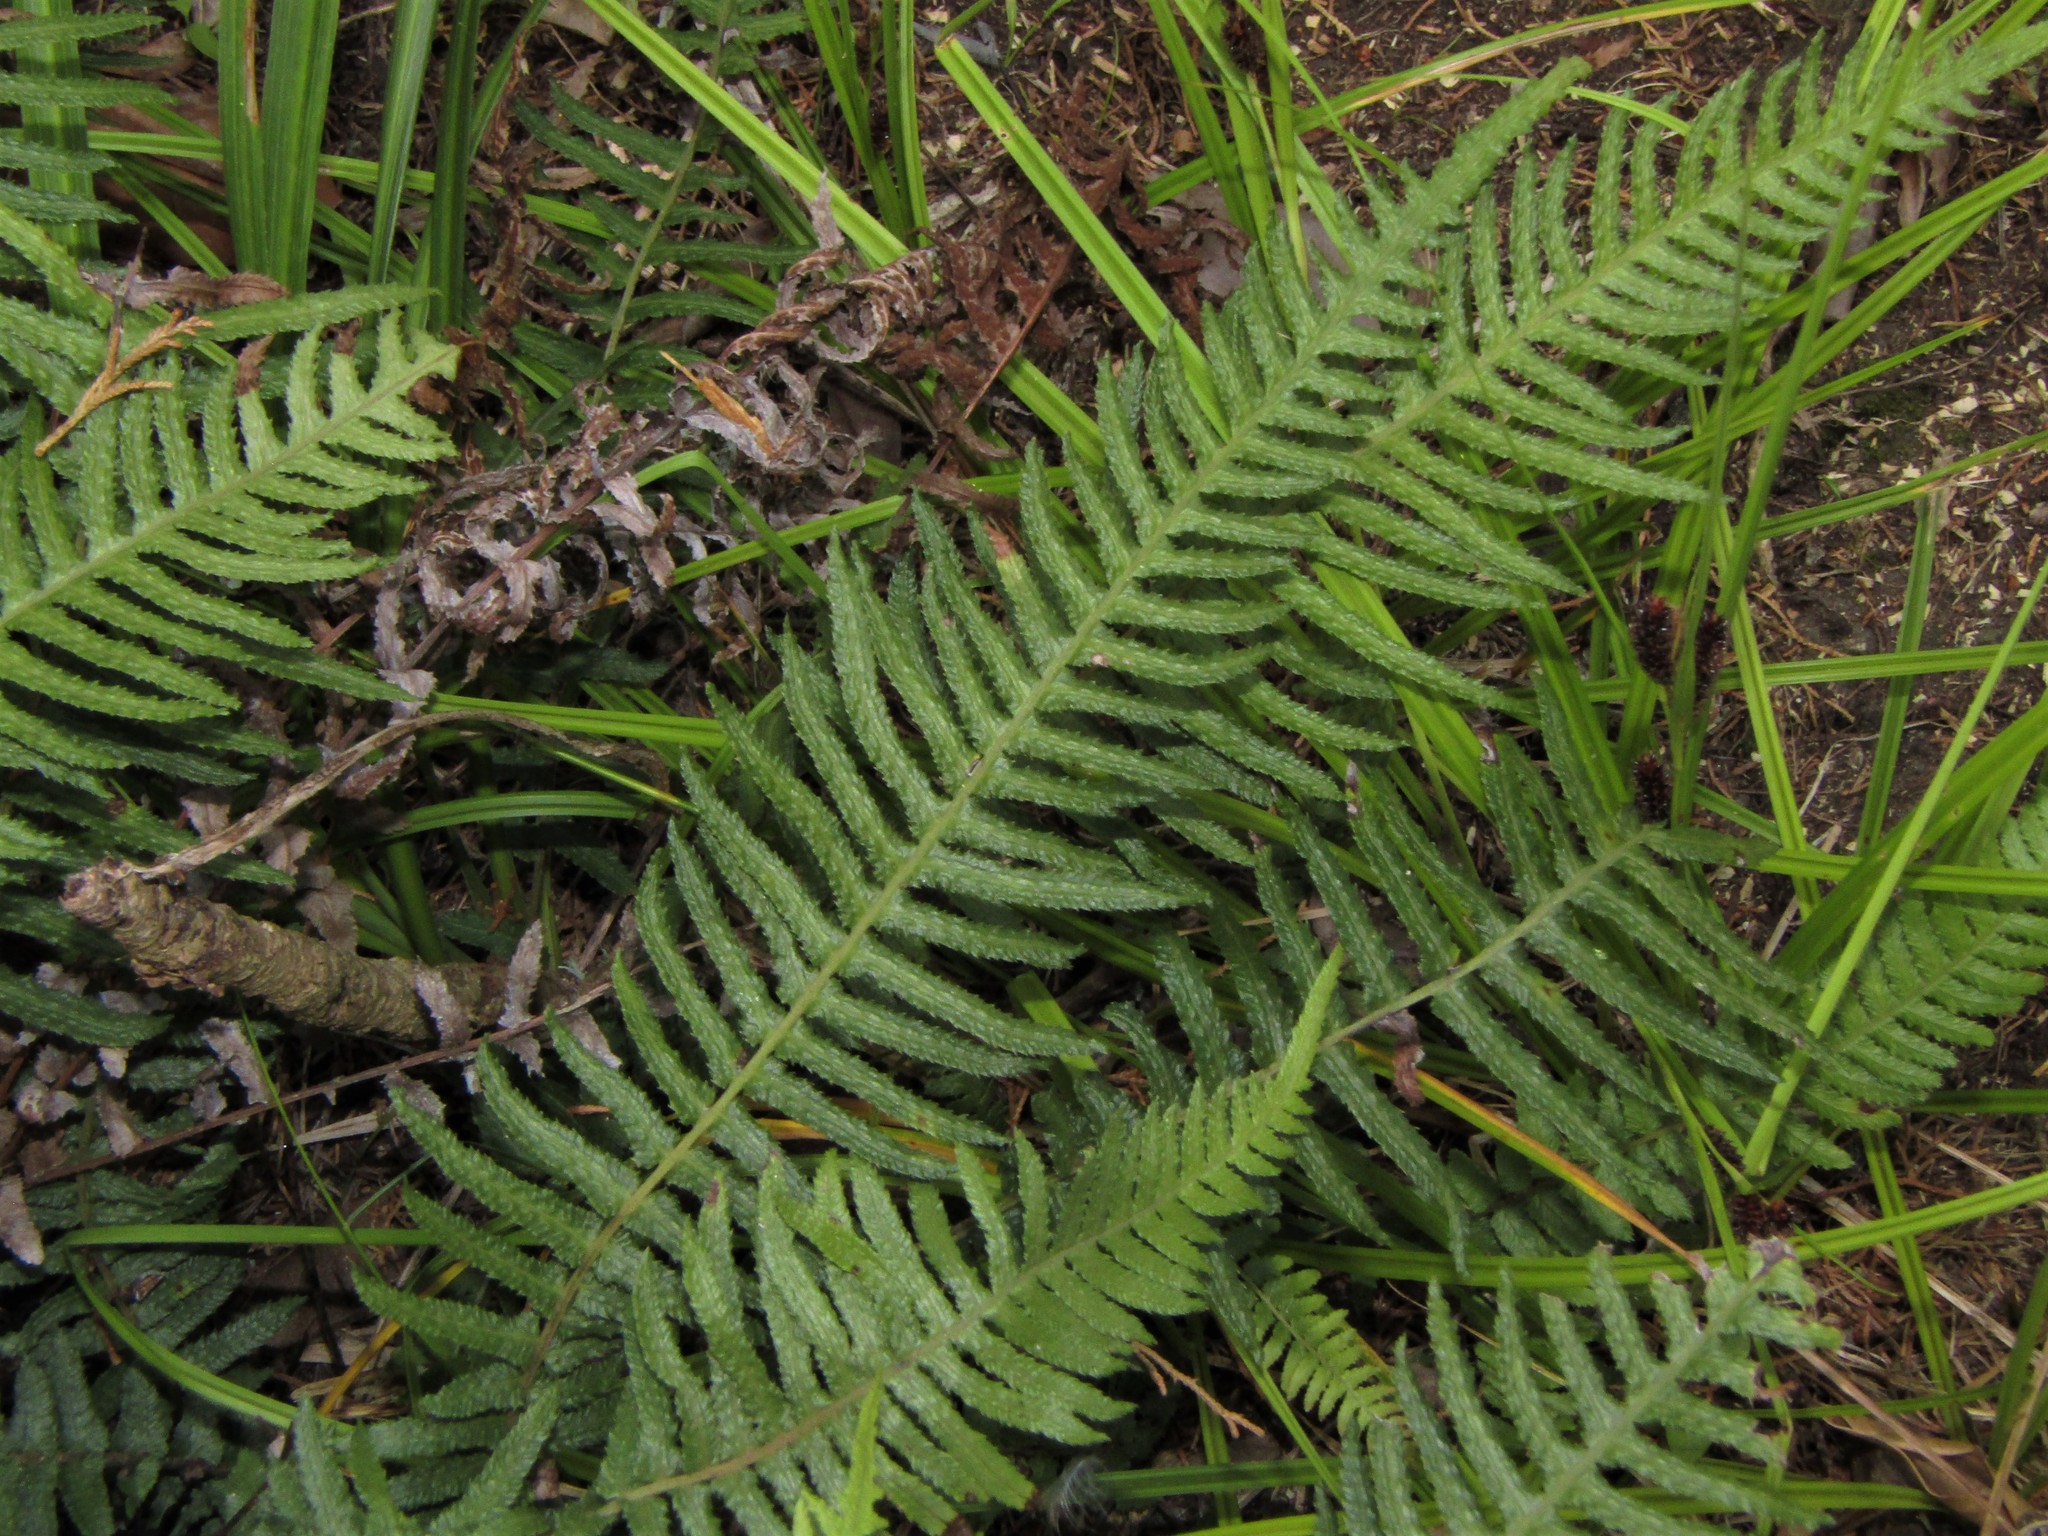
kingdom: Plantae
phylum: Tracheophyta
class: Polypodiopsida
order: Polypodiales
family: Blechnaceae
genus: Doodia
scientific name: Doodia australis
